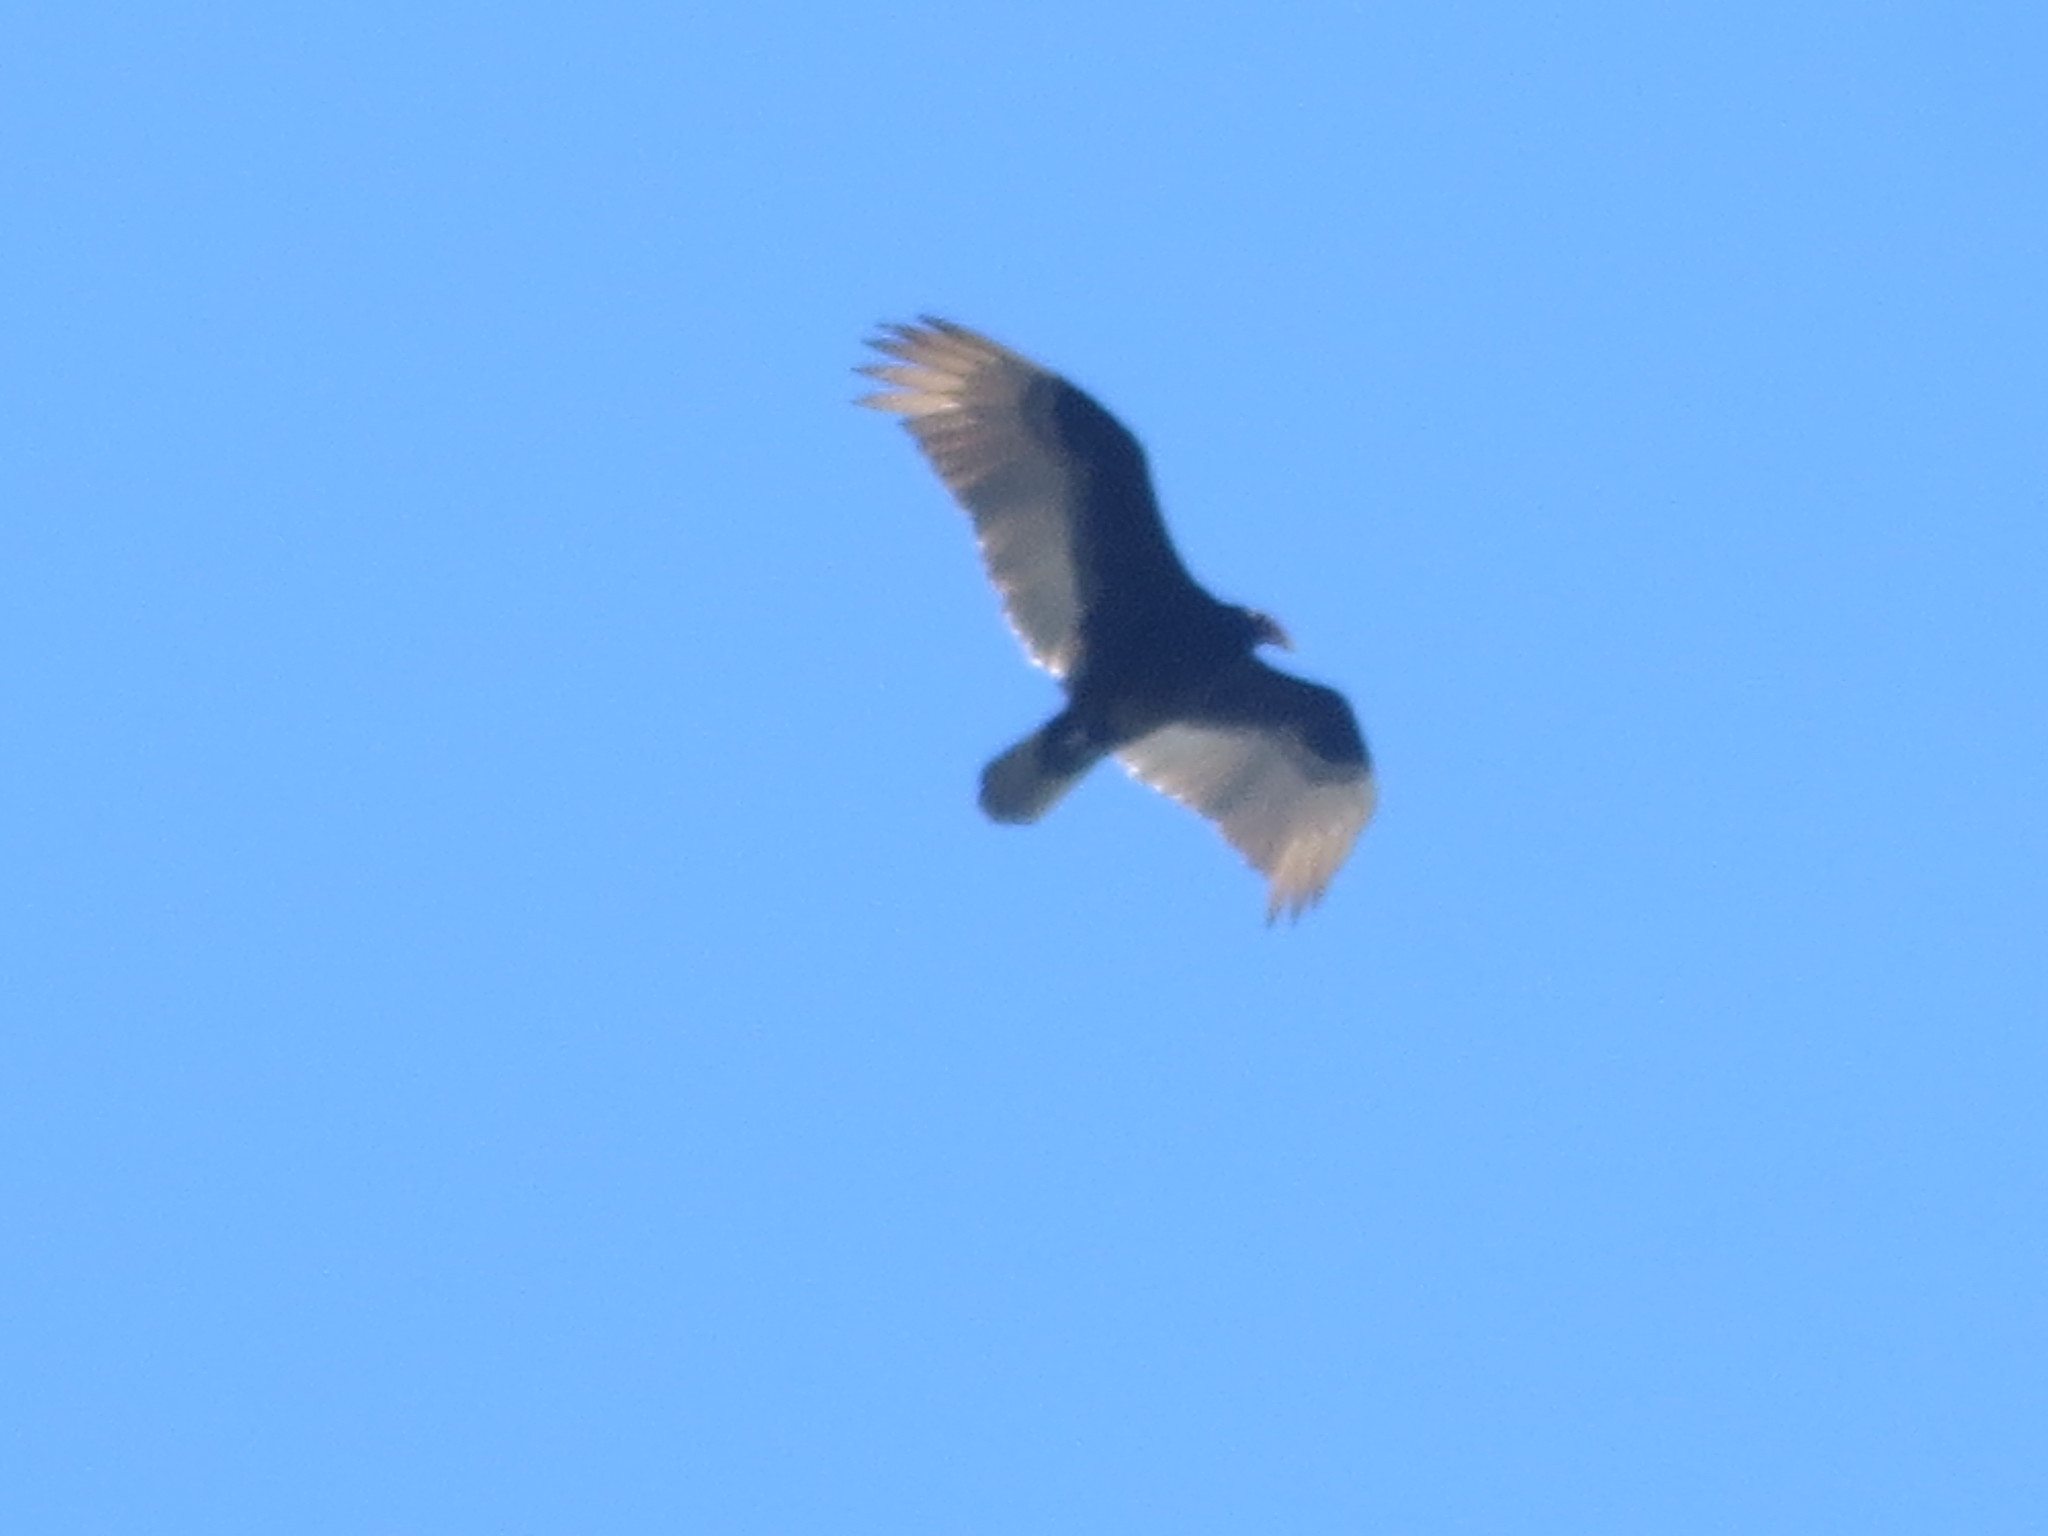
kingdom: Animalia
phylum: Chordata
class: Aves
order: Accipitriformes
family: Cathartidae
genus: Cathartes
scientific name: Cathartes aura
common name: Turkey vulture
